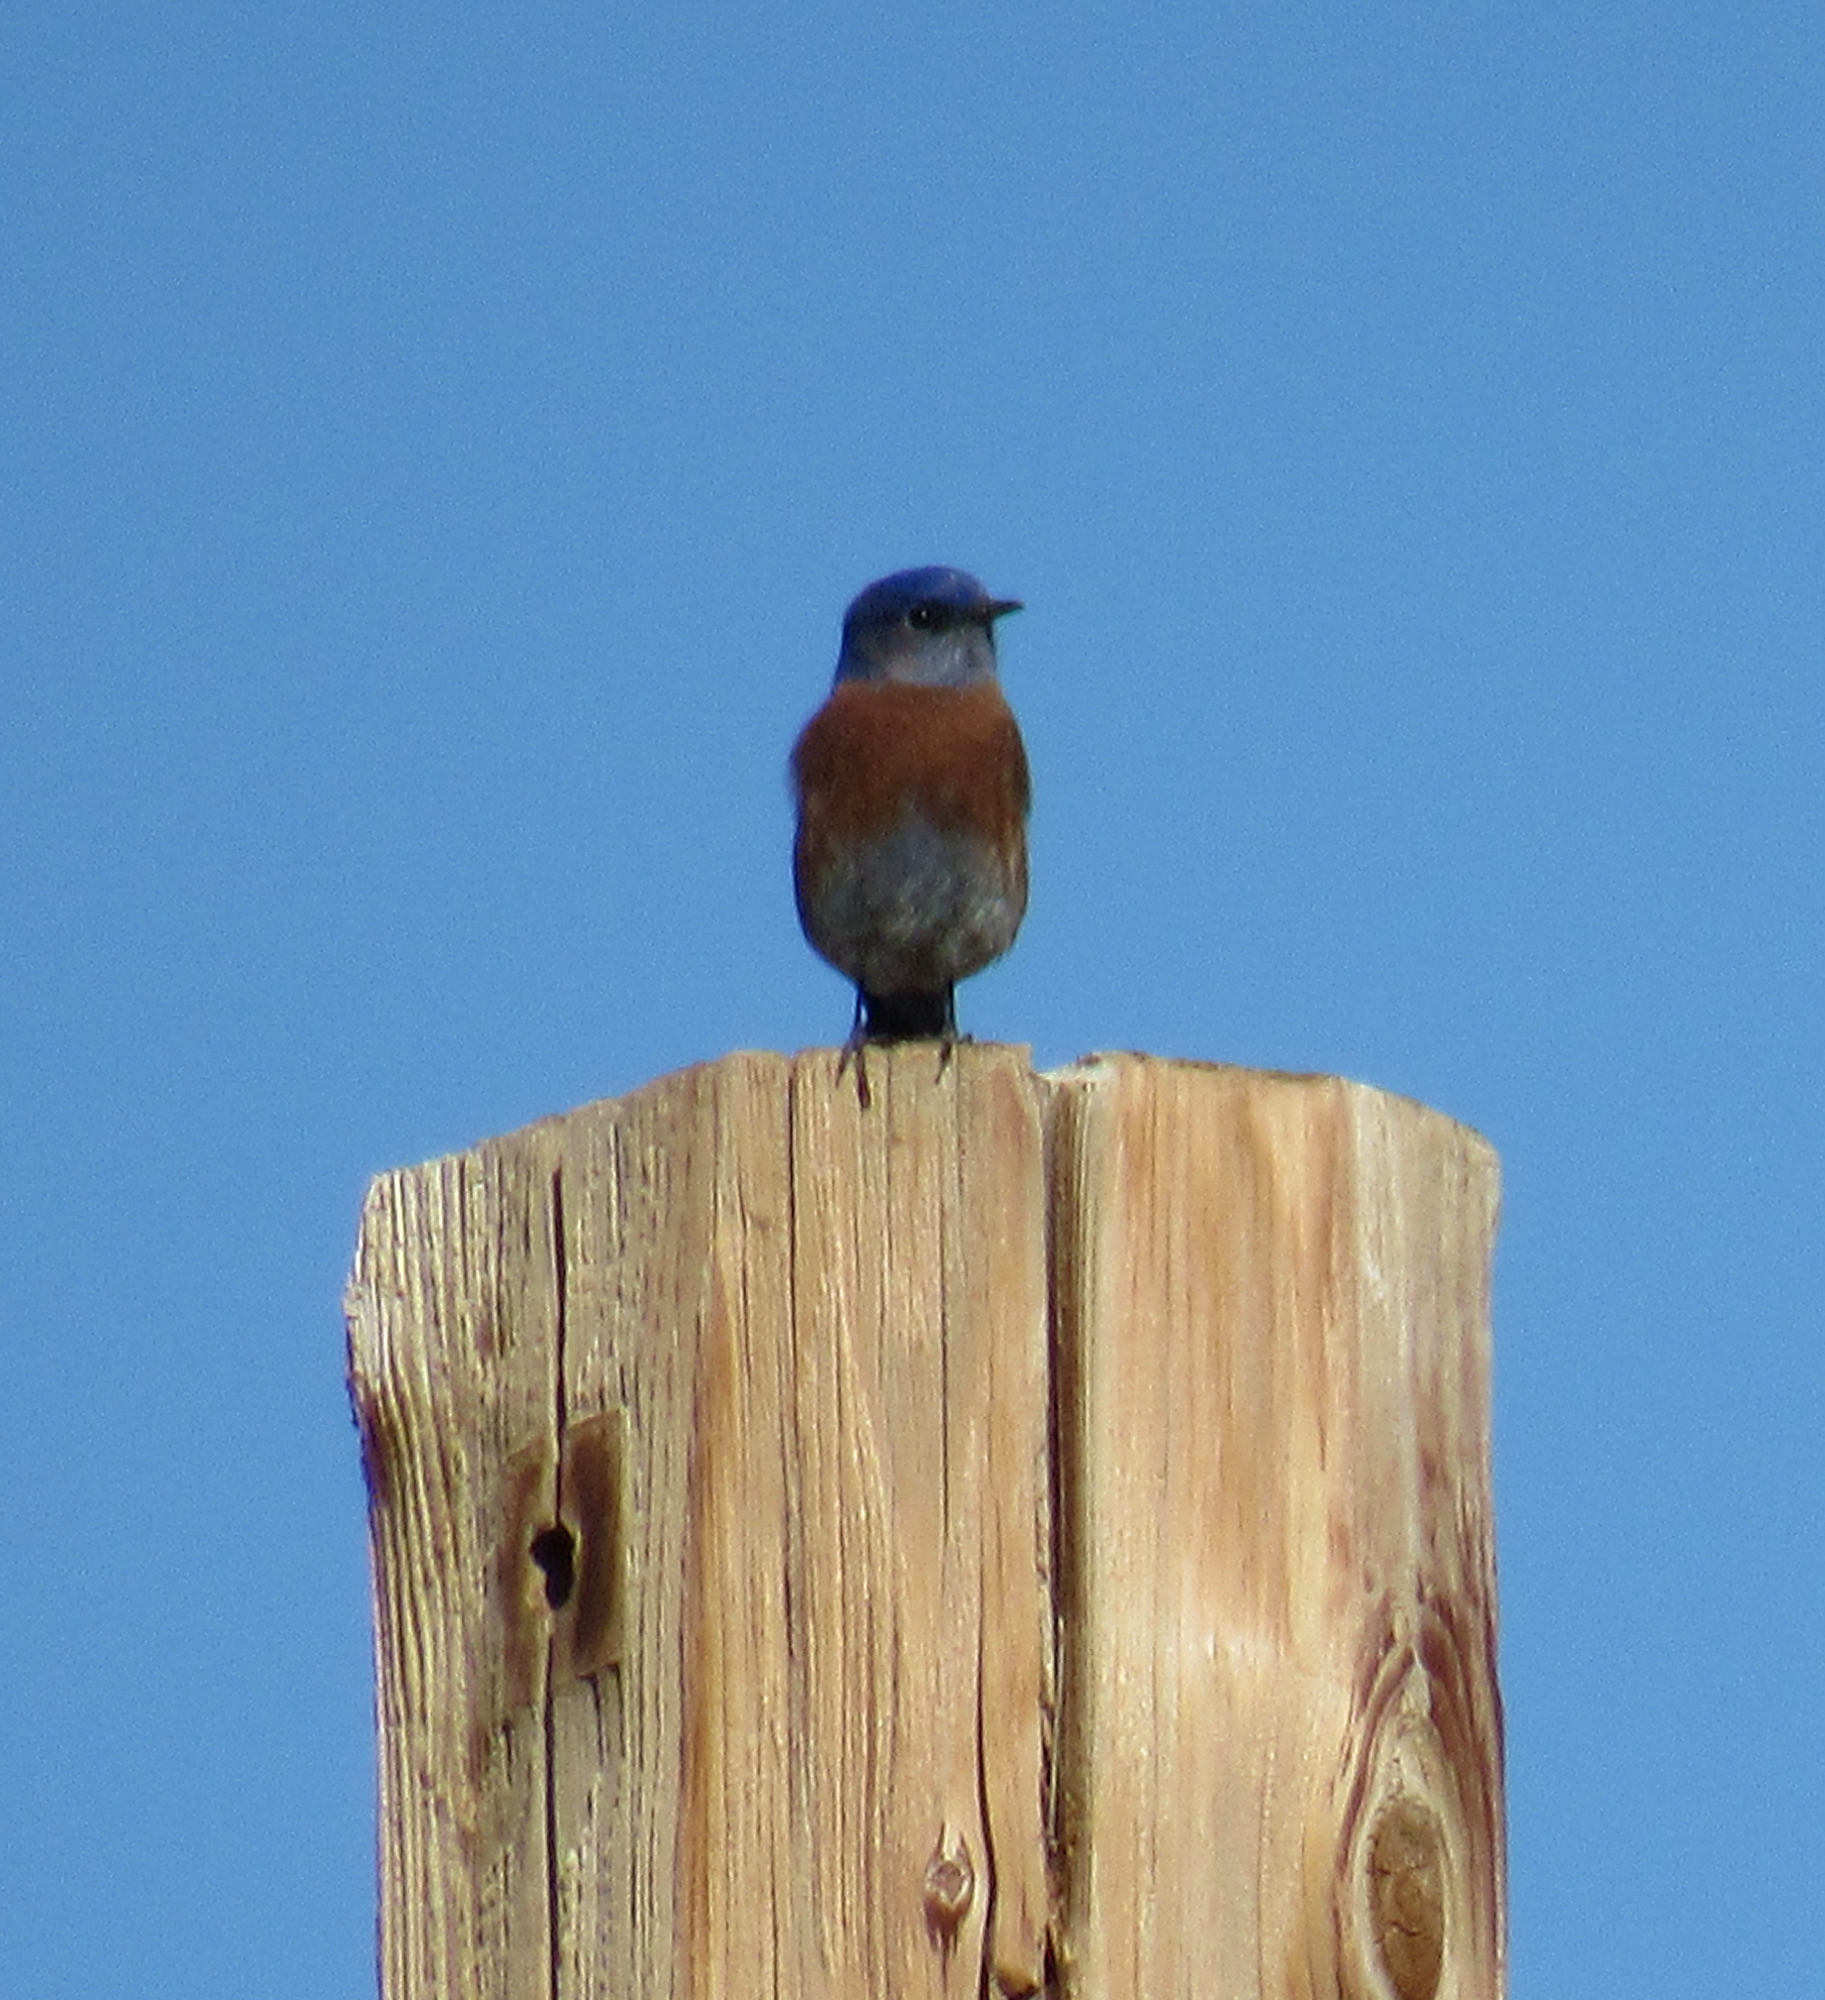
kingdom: Animalia
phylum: Chordata
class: Aves
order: Passeriformes
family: Turdidae
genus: Sialia
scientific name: Sialia mexicana
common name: Western bluebird
